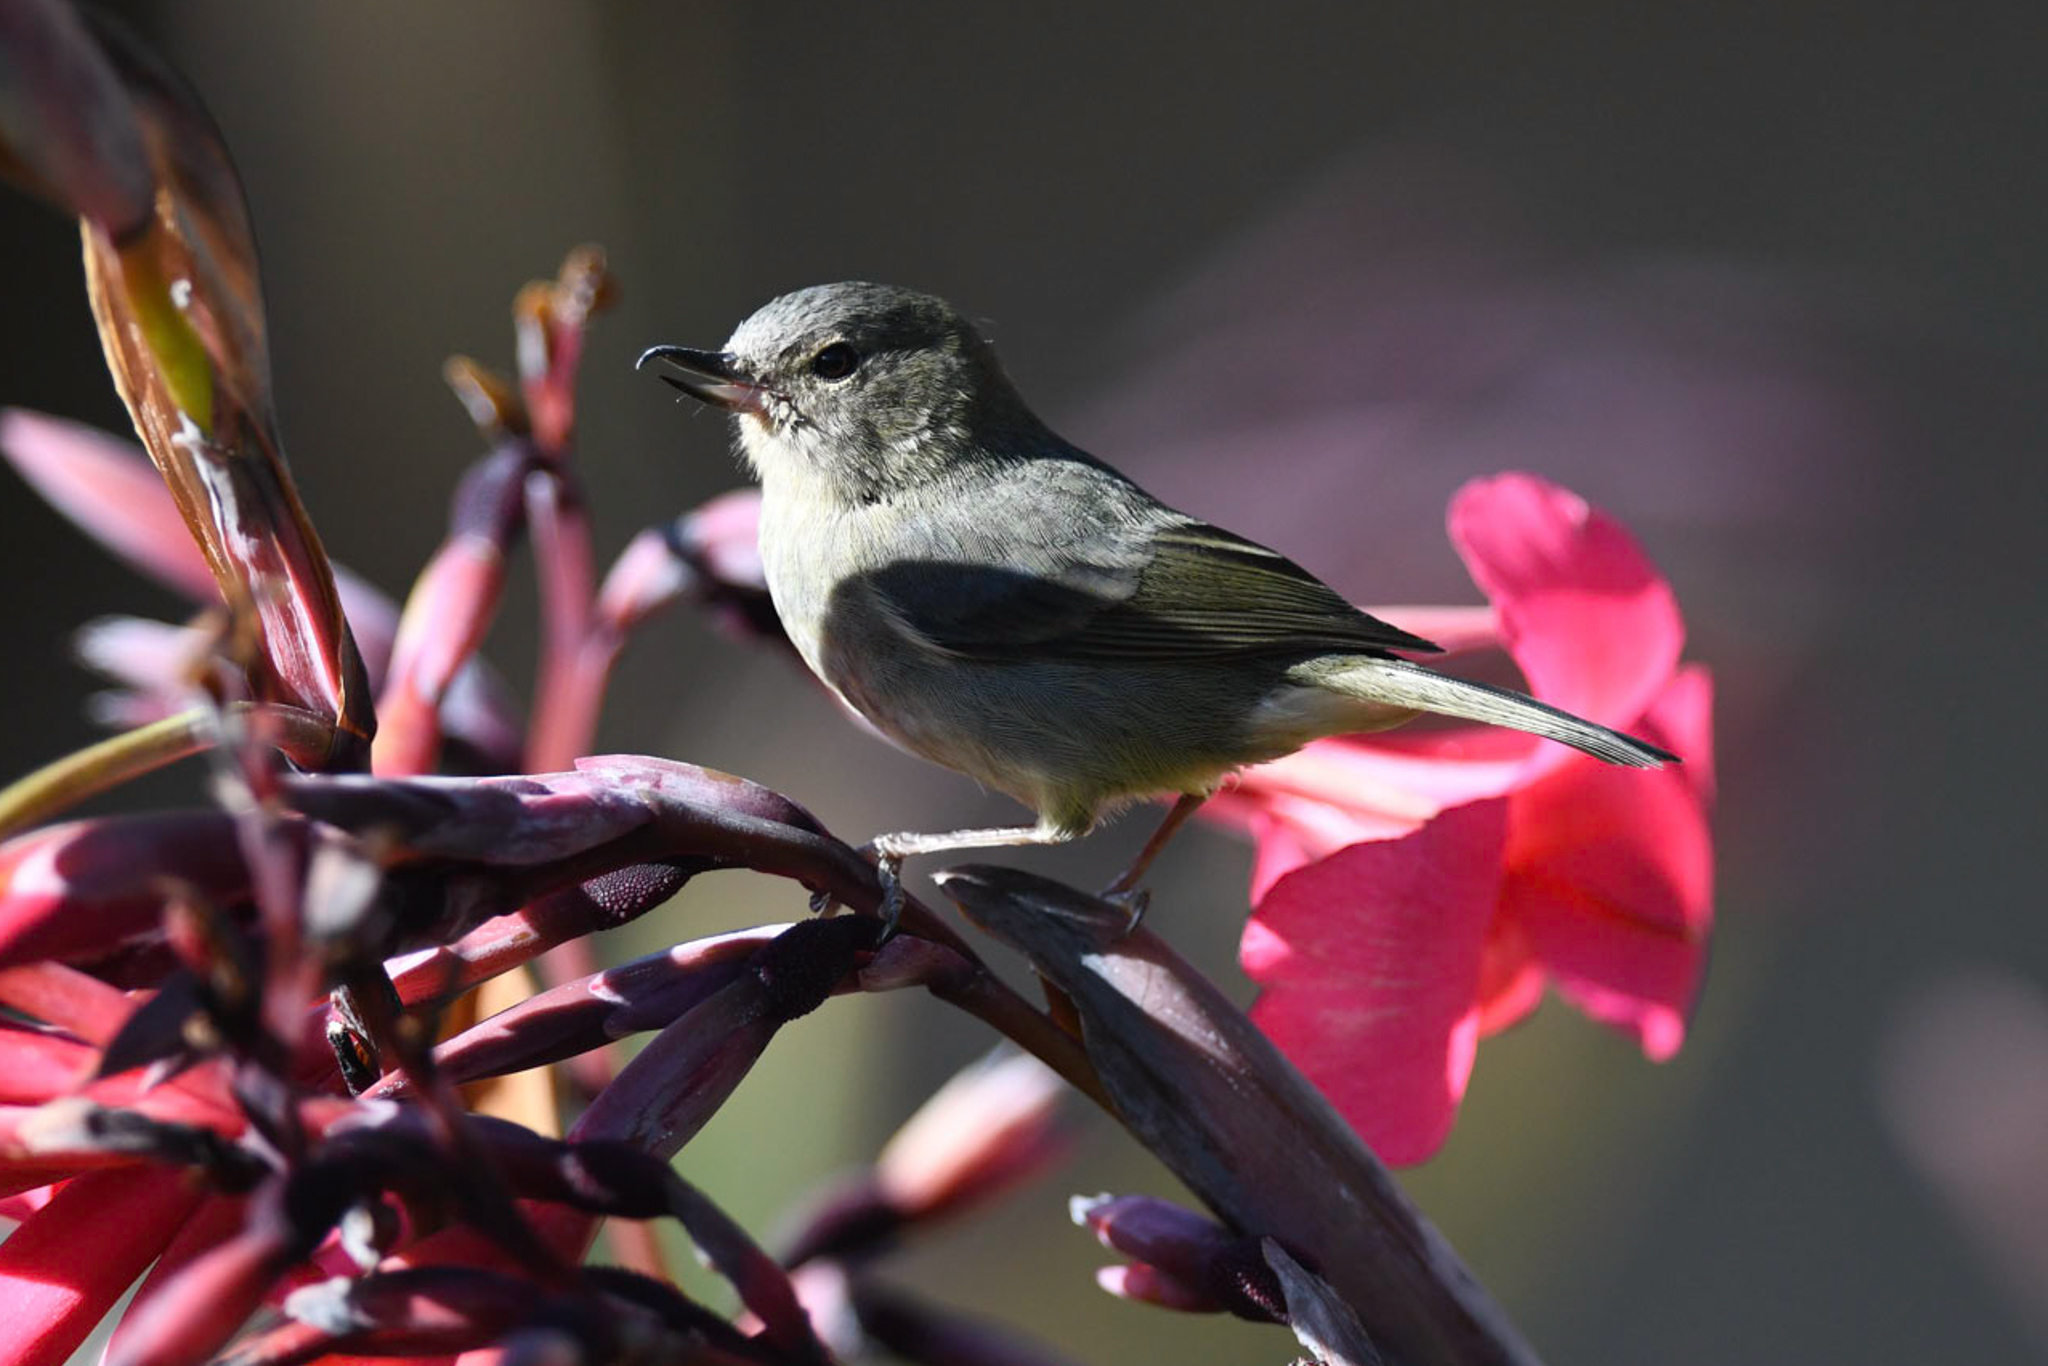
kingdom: Animalia
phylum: Chordata
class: Aves
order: Passeriformes
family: Thraupidae
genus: Diglossa
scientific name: Diglossa plumbea
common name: Slaty flowerpiercer
